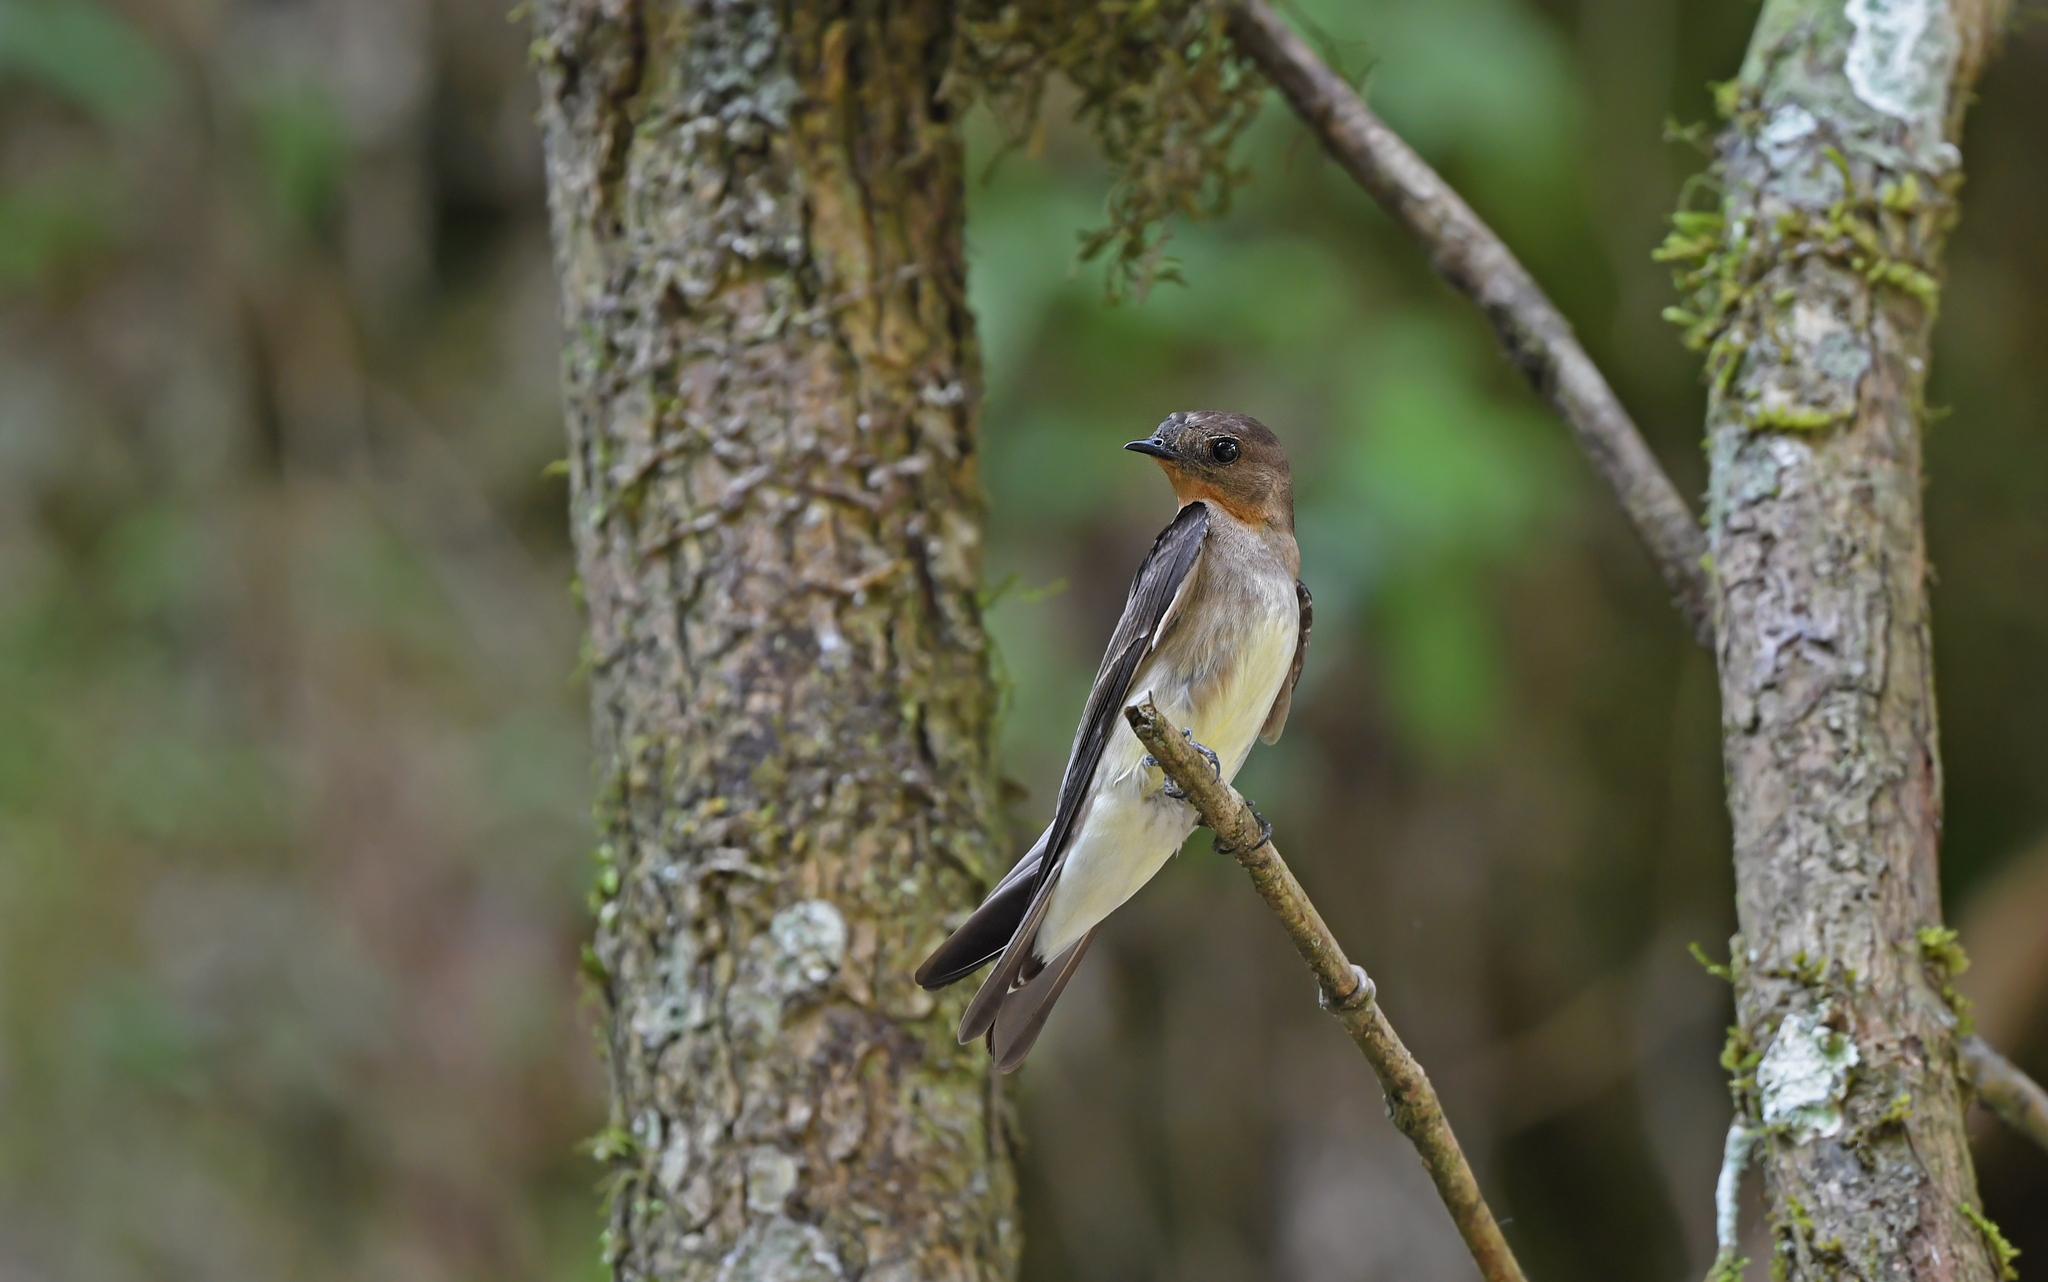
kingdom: Animalia
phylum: Chordata
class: Aves
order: Passeriformes
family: Hirundinidae
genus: Stelgidopteryx
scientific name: Stelgidopteryx ruficollis
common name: Southern rough-winged swallow
